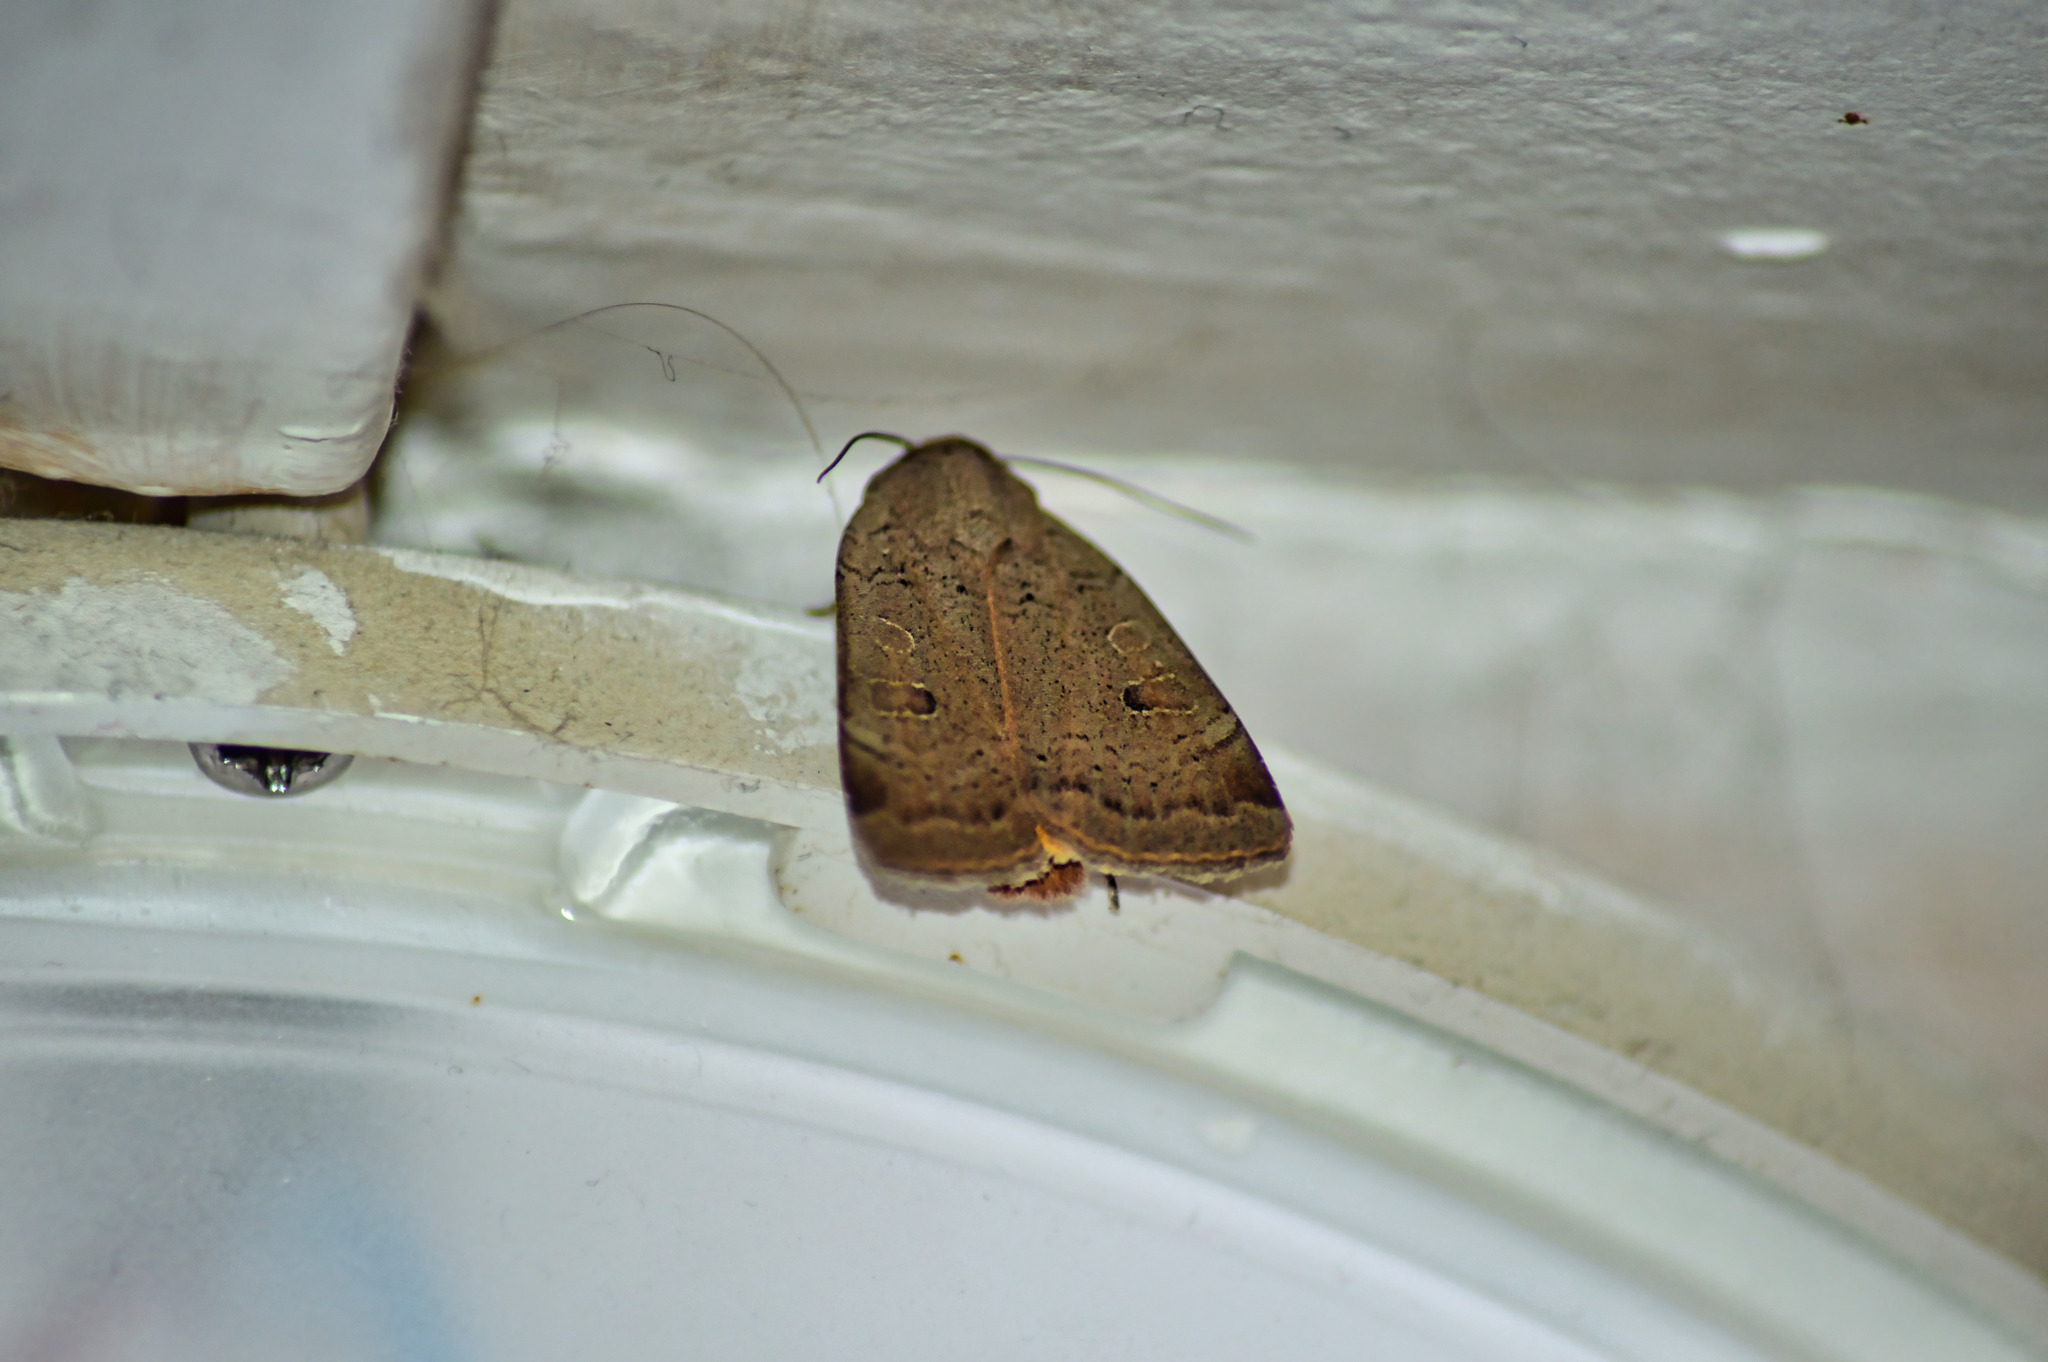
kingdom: Animalia
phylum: Arthropoda
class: Insecta
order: Lepidoptera
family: Noctuidae
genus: Noctua
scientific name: Noctua comes
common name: Lesser yellow underwing
